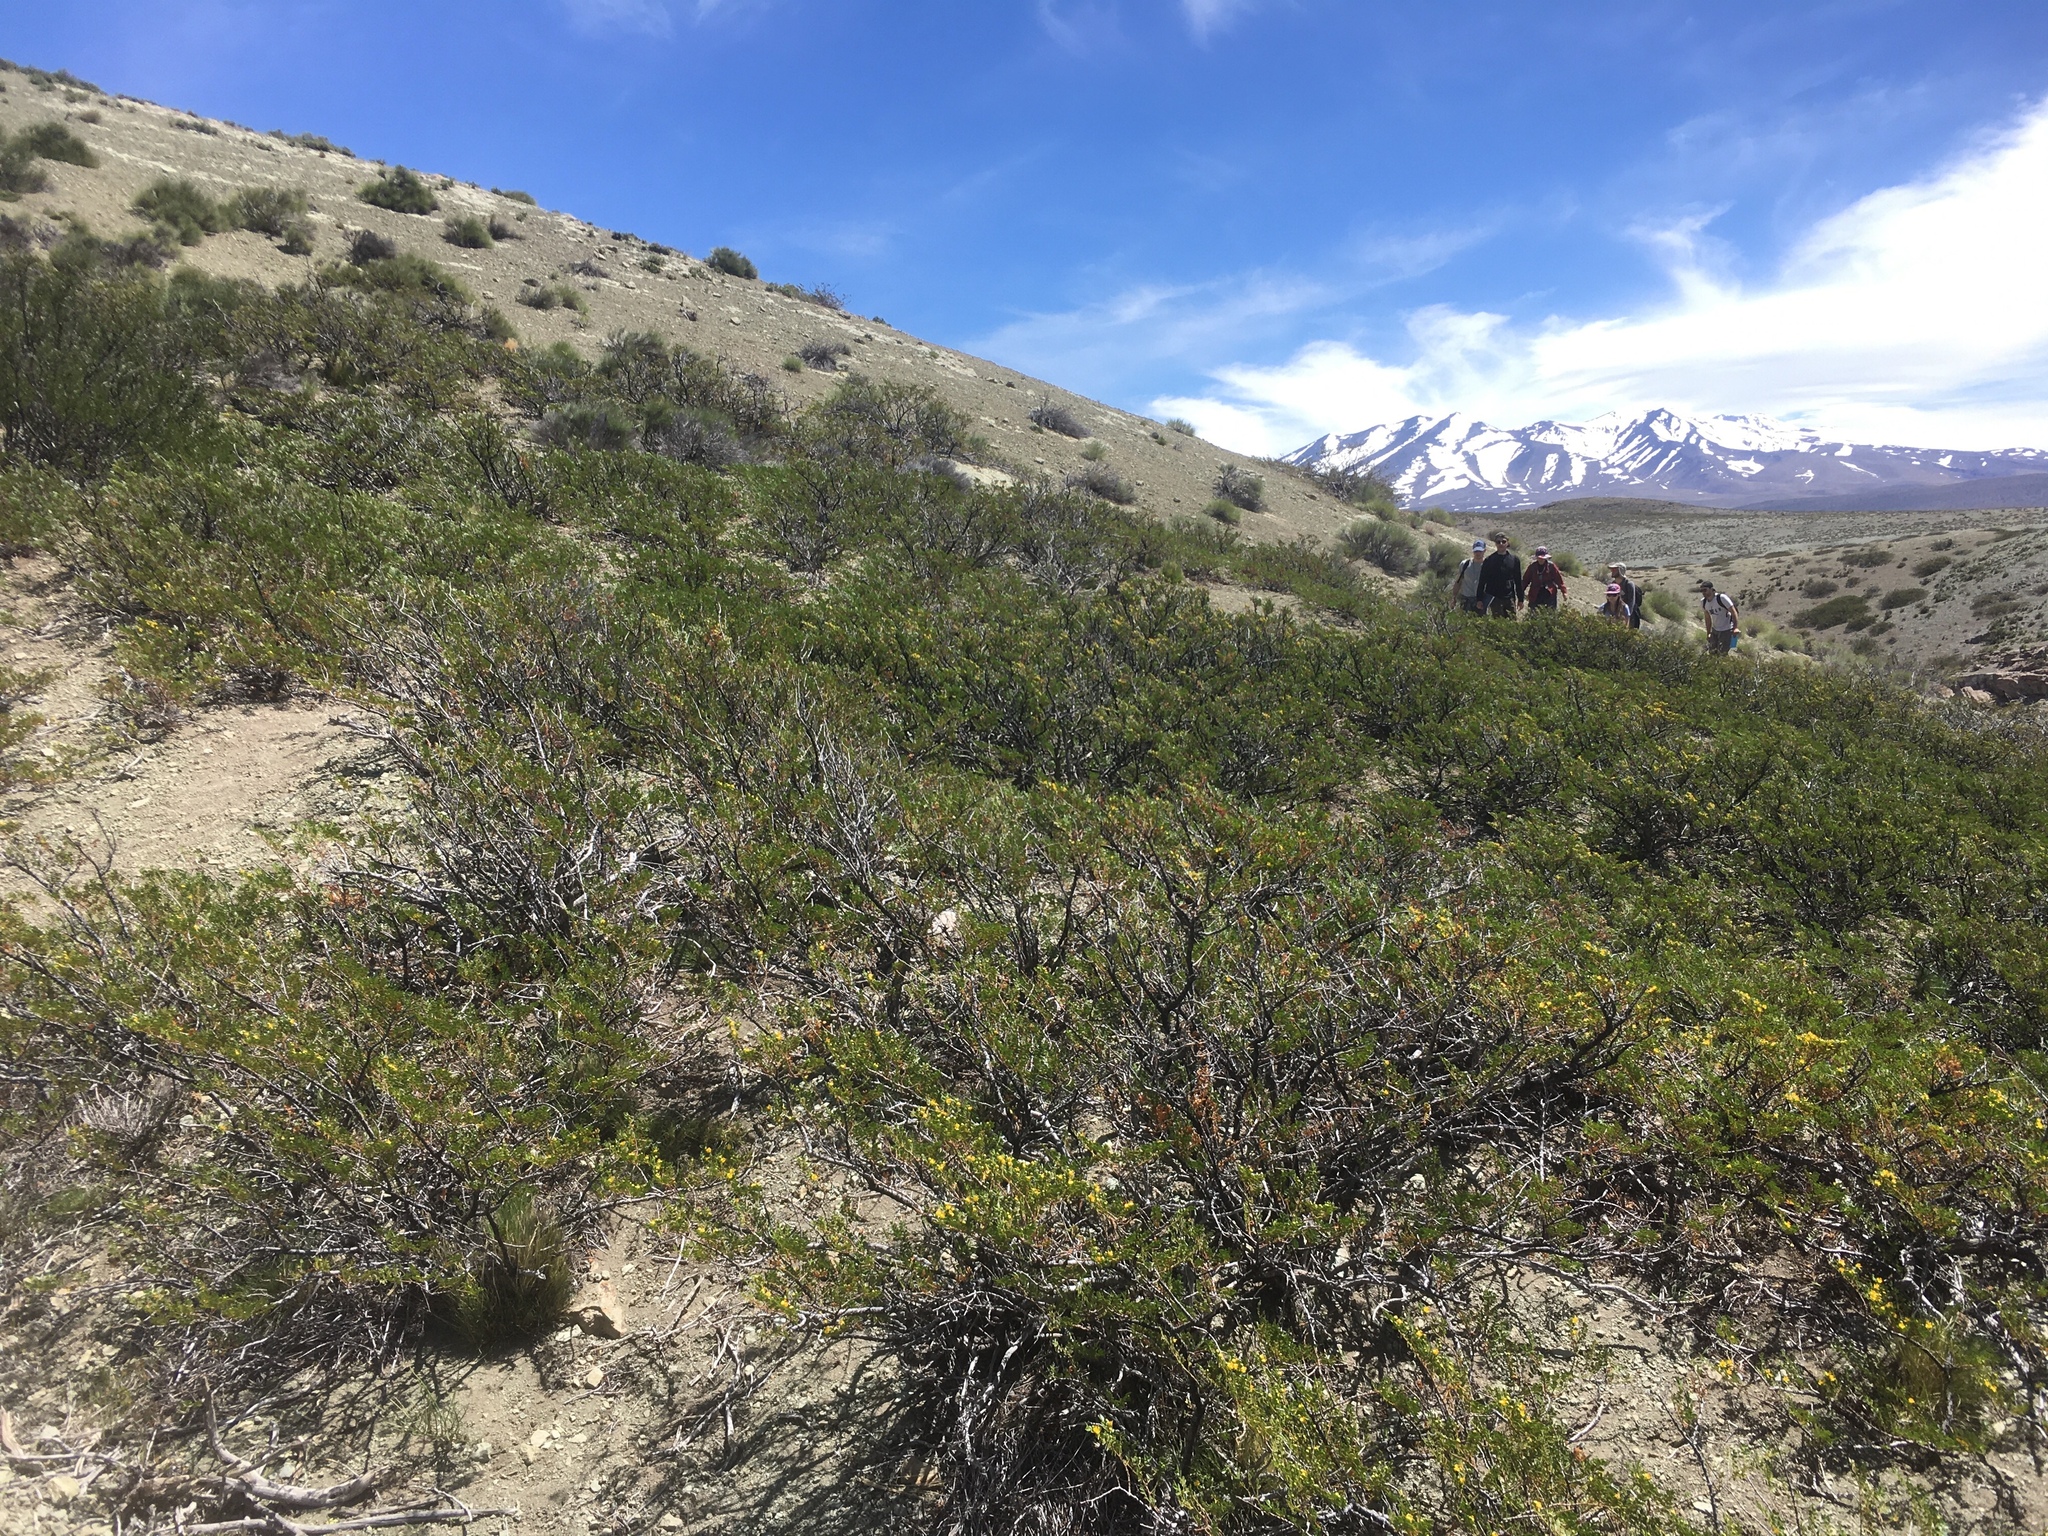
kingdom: Plantae
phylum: Tracheophyta
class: Magnoliopsida
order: Zygophyllales
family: Zygophyllaceae
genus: Larrea
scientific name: Larrea nitida
